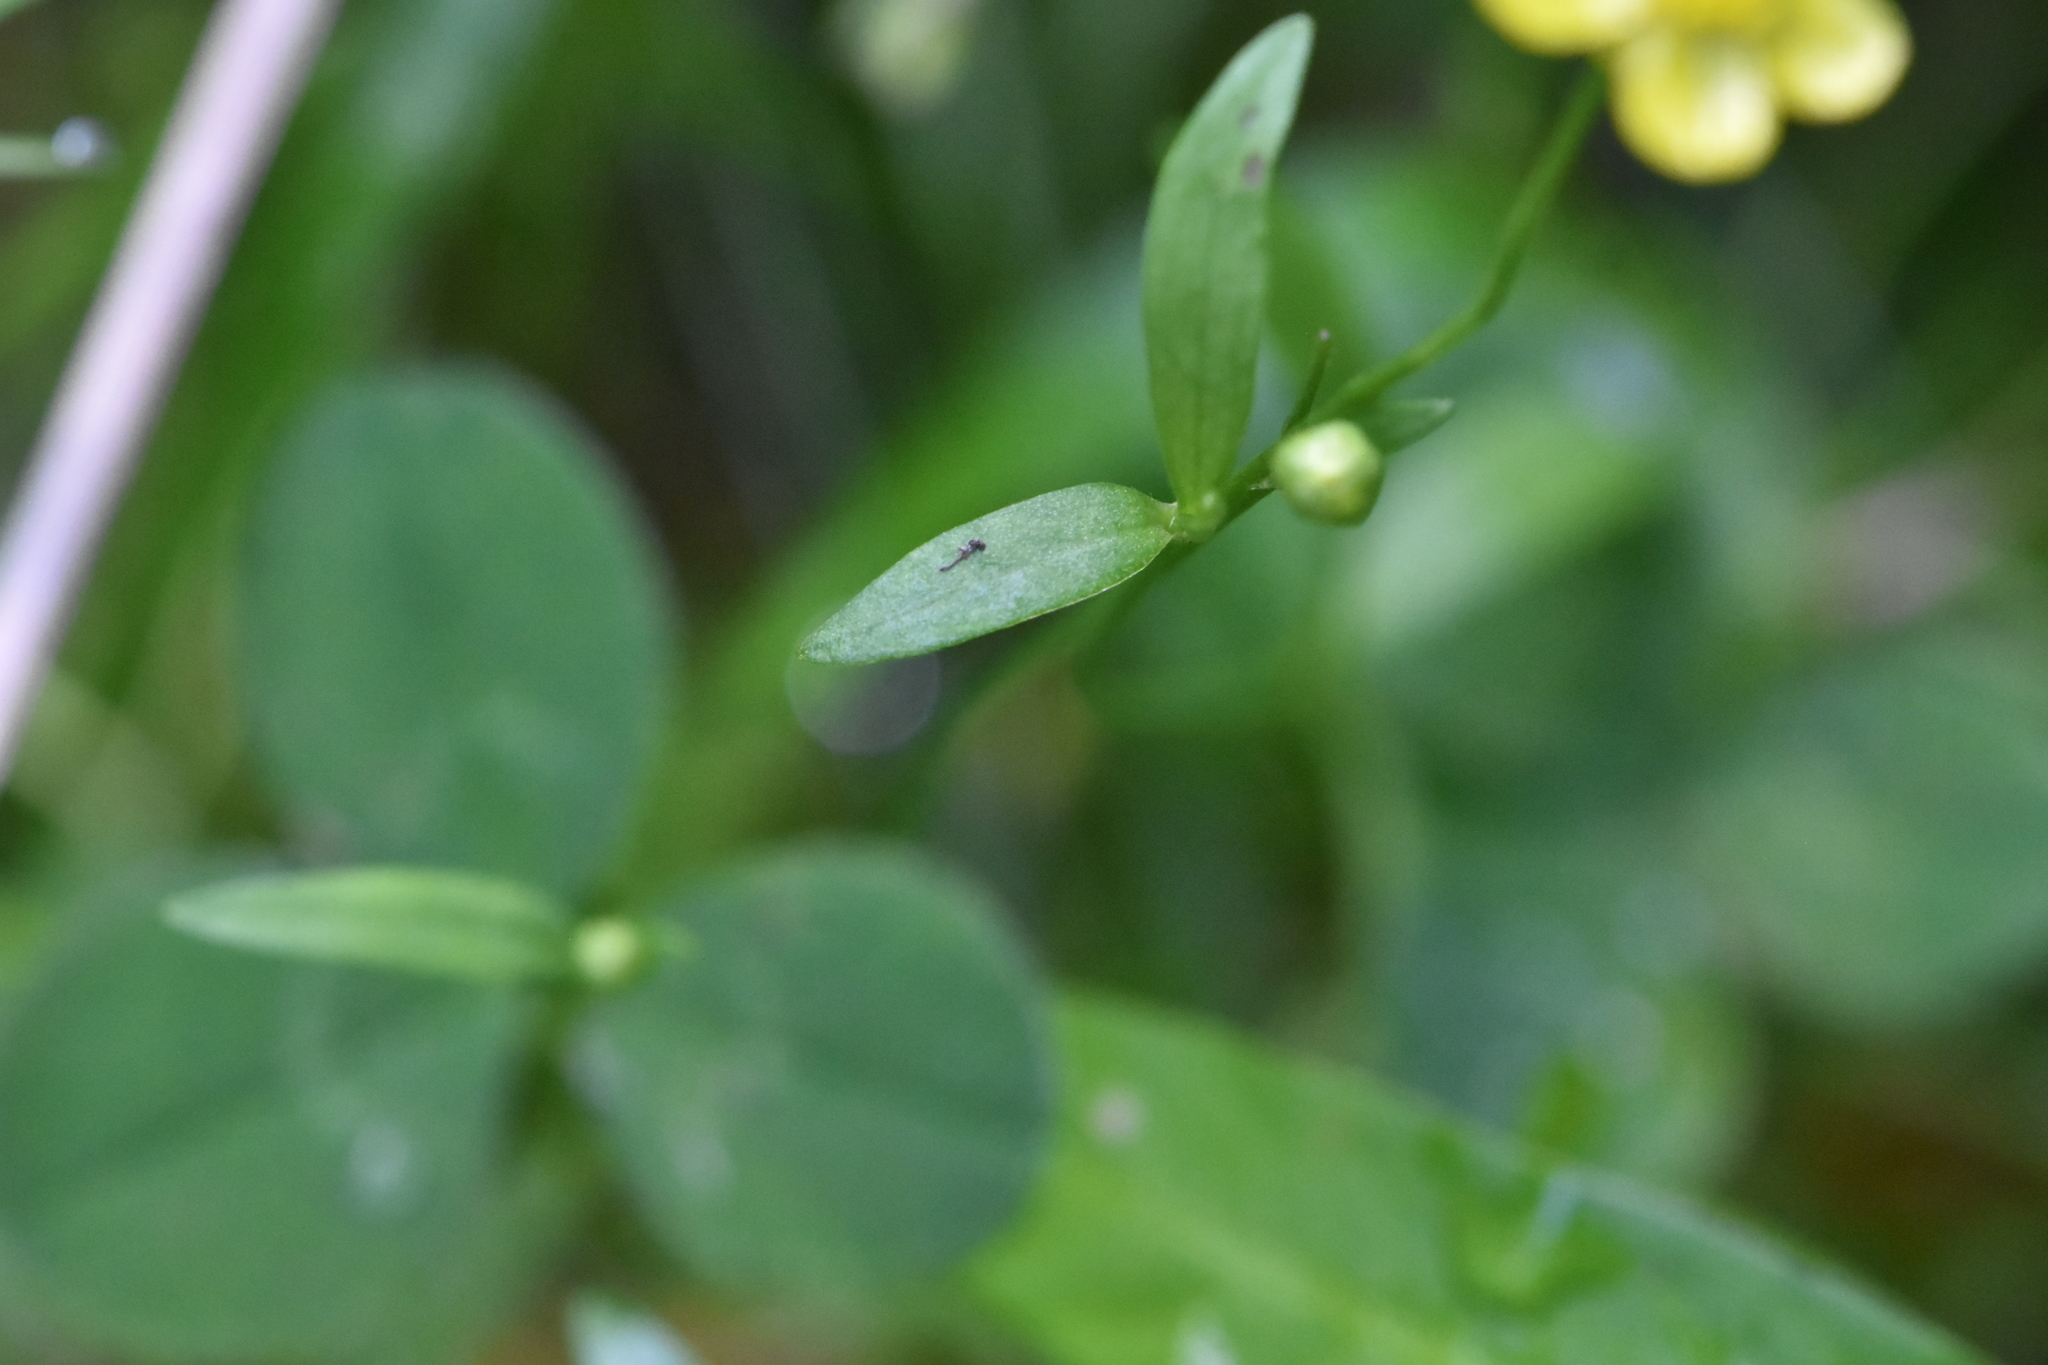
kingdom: Plantae
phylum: Tracheophyta
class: Magnoliopsida
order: Ranunculales
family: Ranunculaceae
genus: Ranunculus
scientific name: Ranunculus flammula
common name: Lesser spearwort
